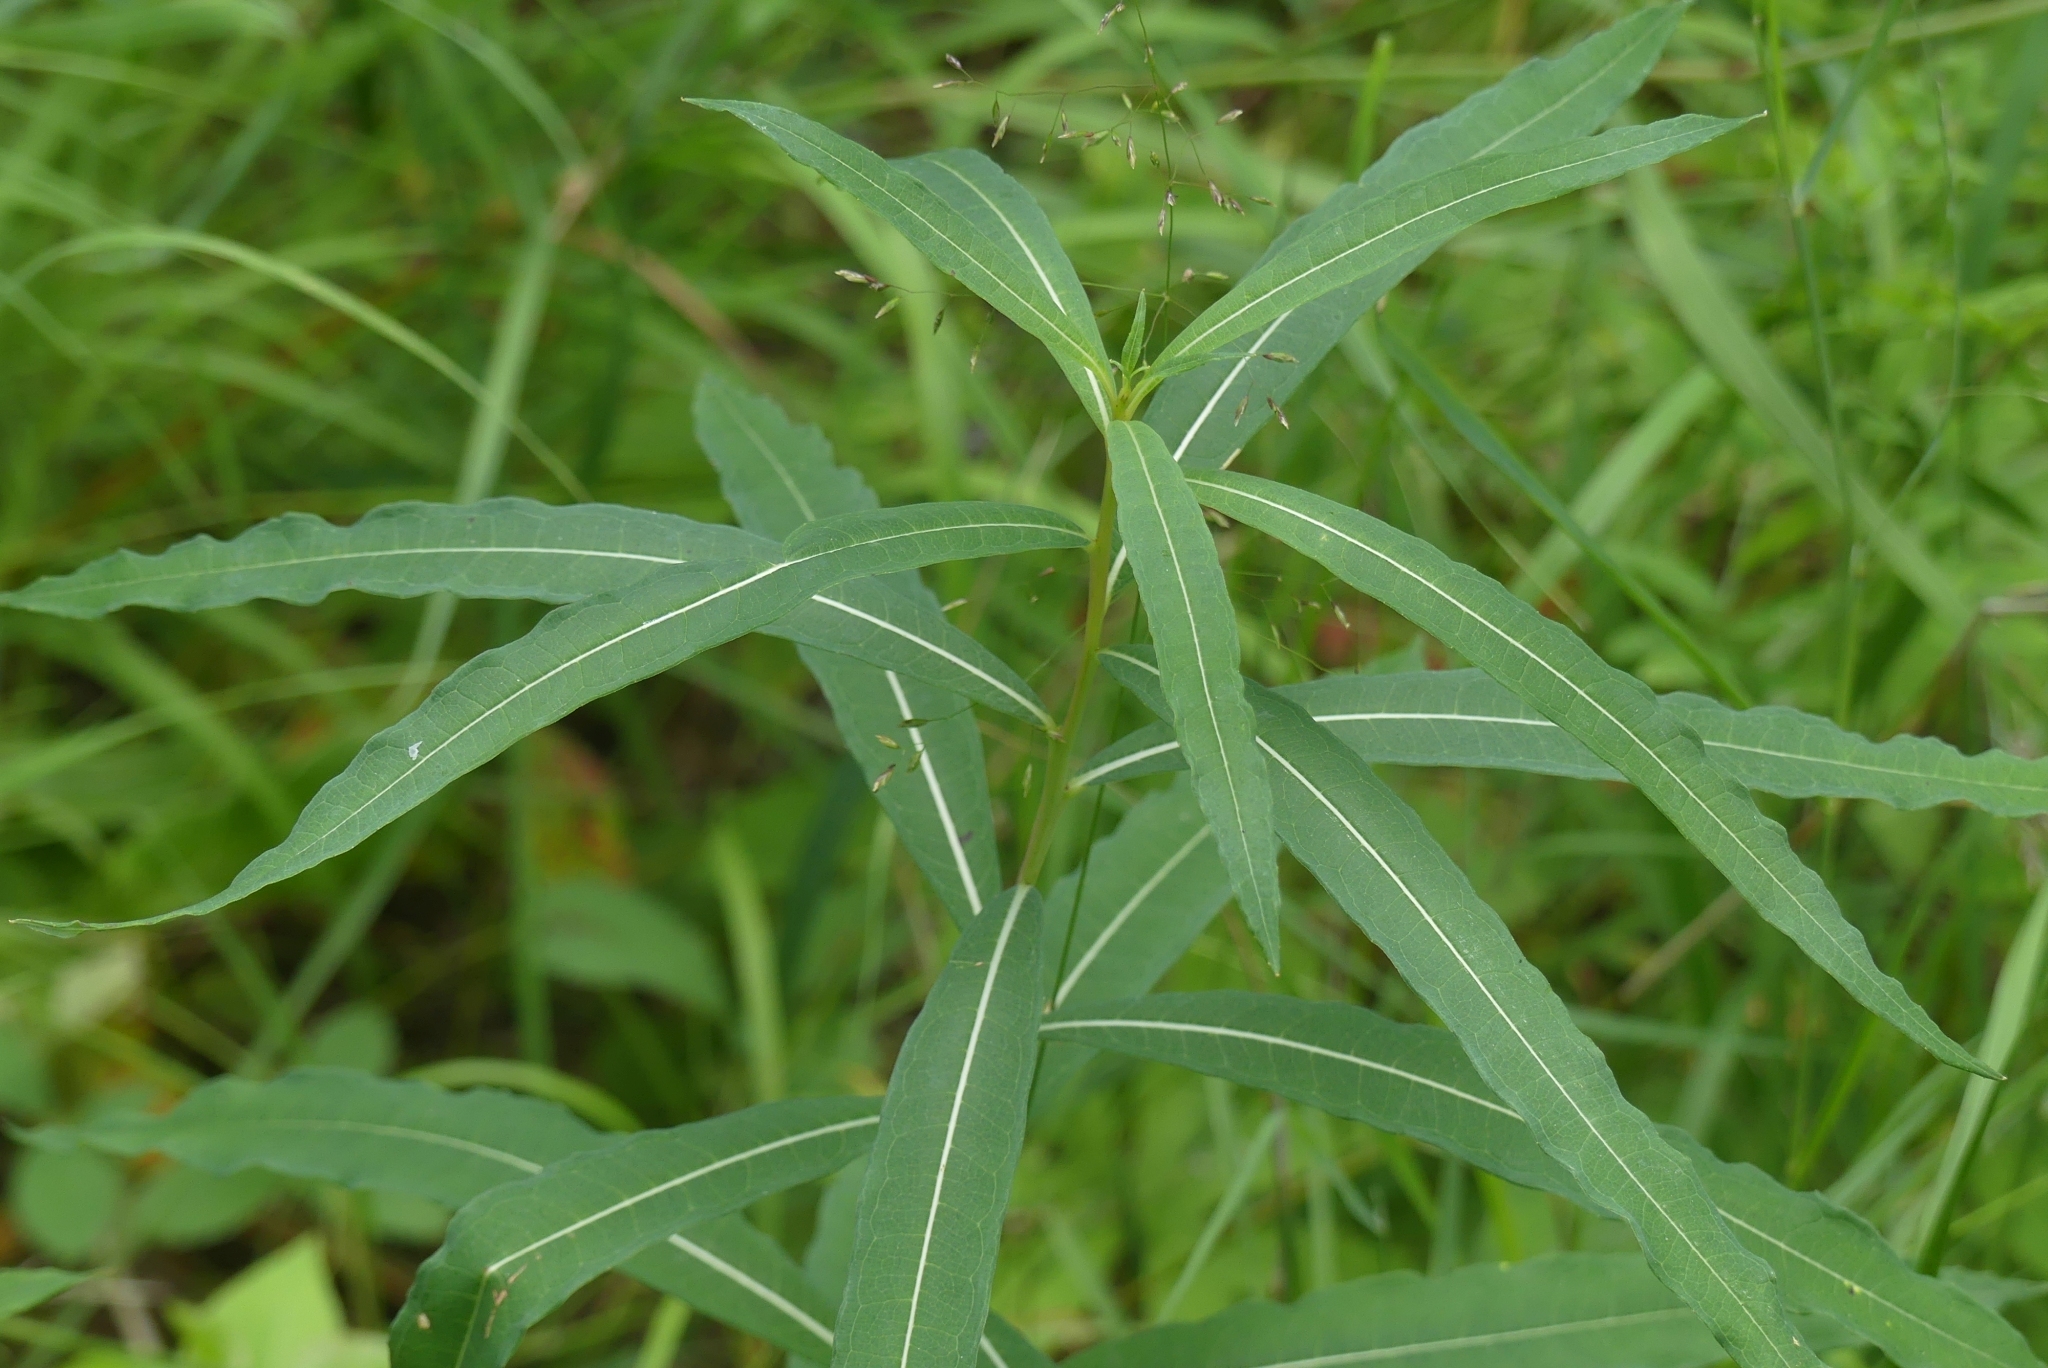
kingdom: Plantae
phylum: Tracheophyta
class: Magnoliopsida
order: Myrtales
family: Onagraceae
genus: Chamaenerion
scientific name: Chamaenerion angustifolium
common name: Fireweed
